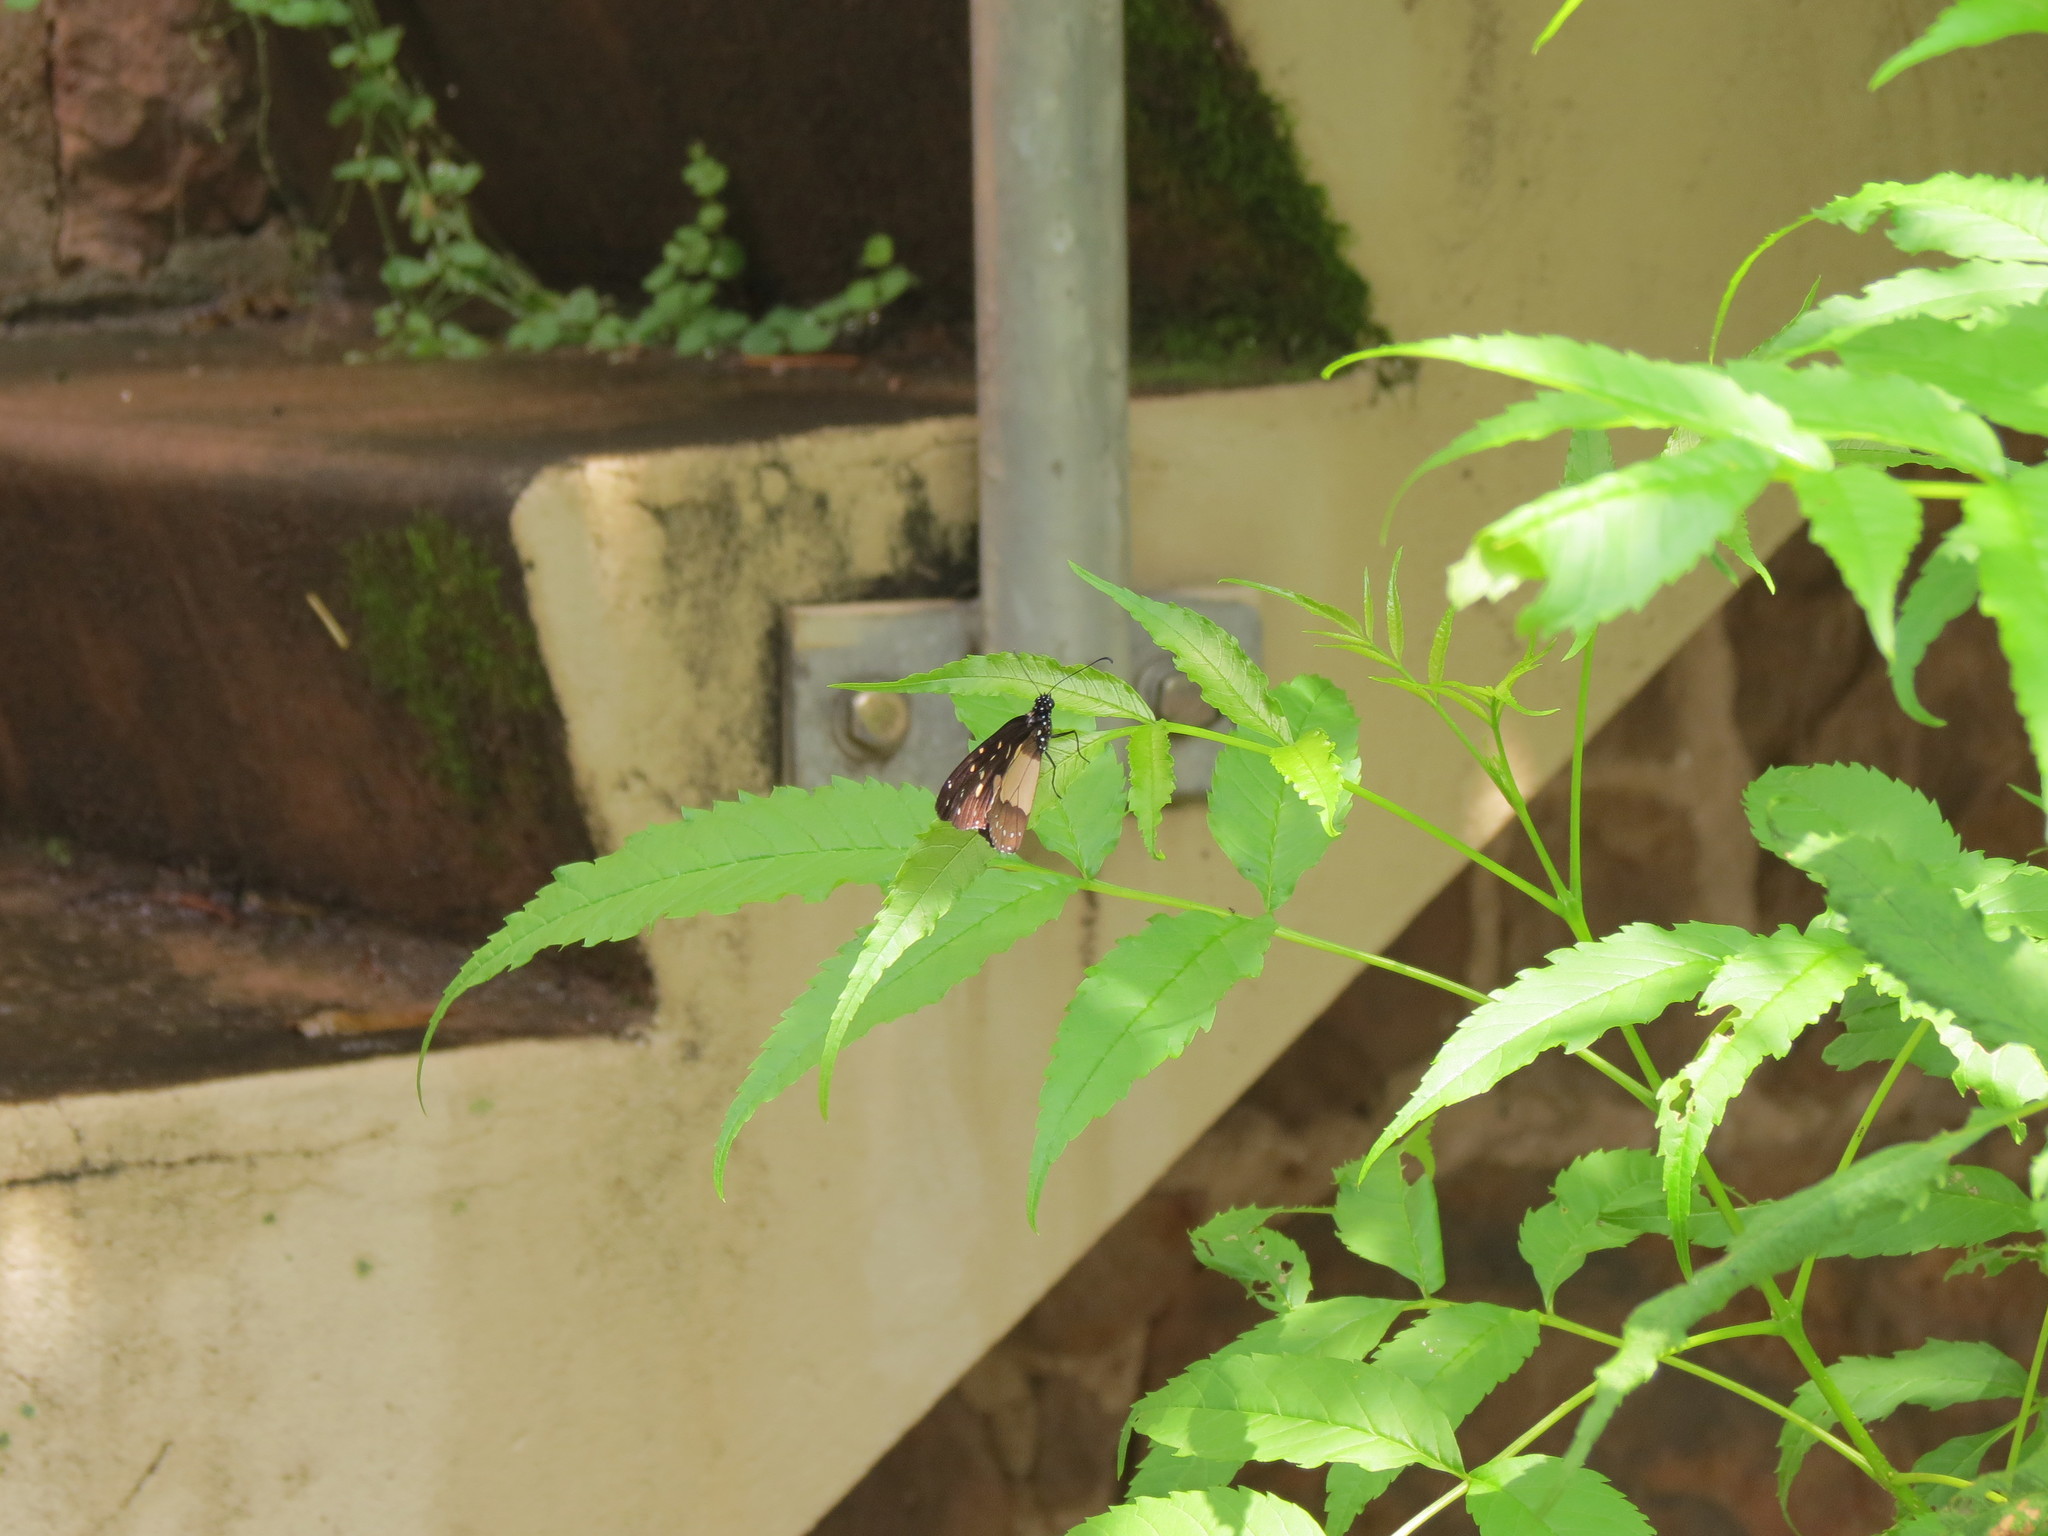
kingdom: Animalia
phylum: Arthropoda
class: Insecta
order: Lepidoptera
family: Nymphalidae
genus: Amauris
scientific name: Amauris
